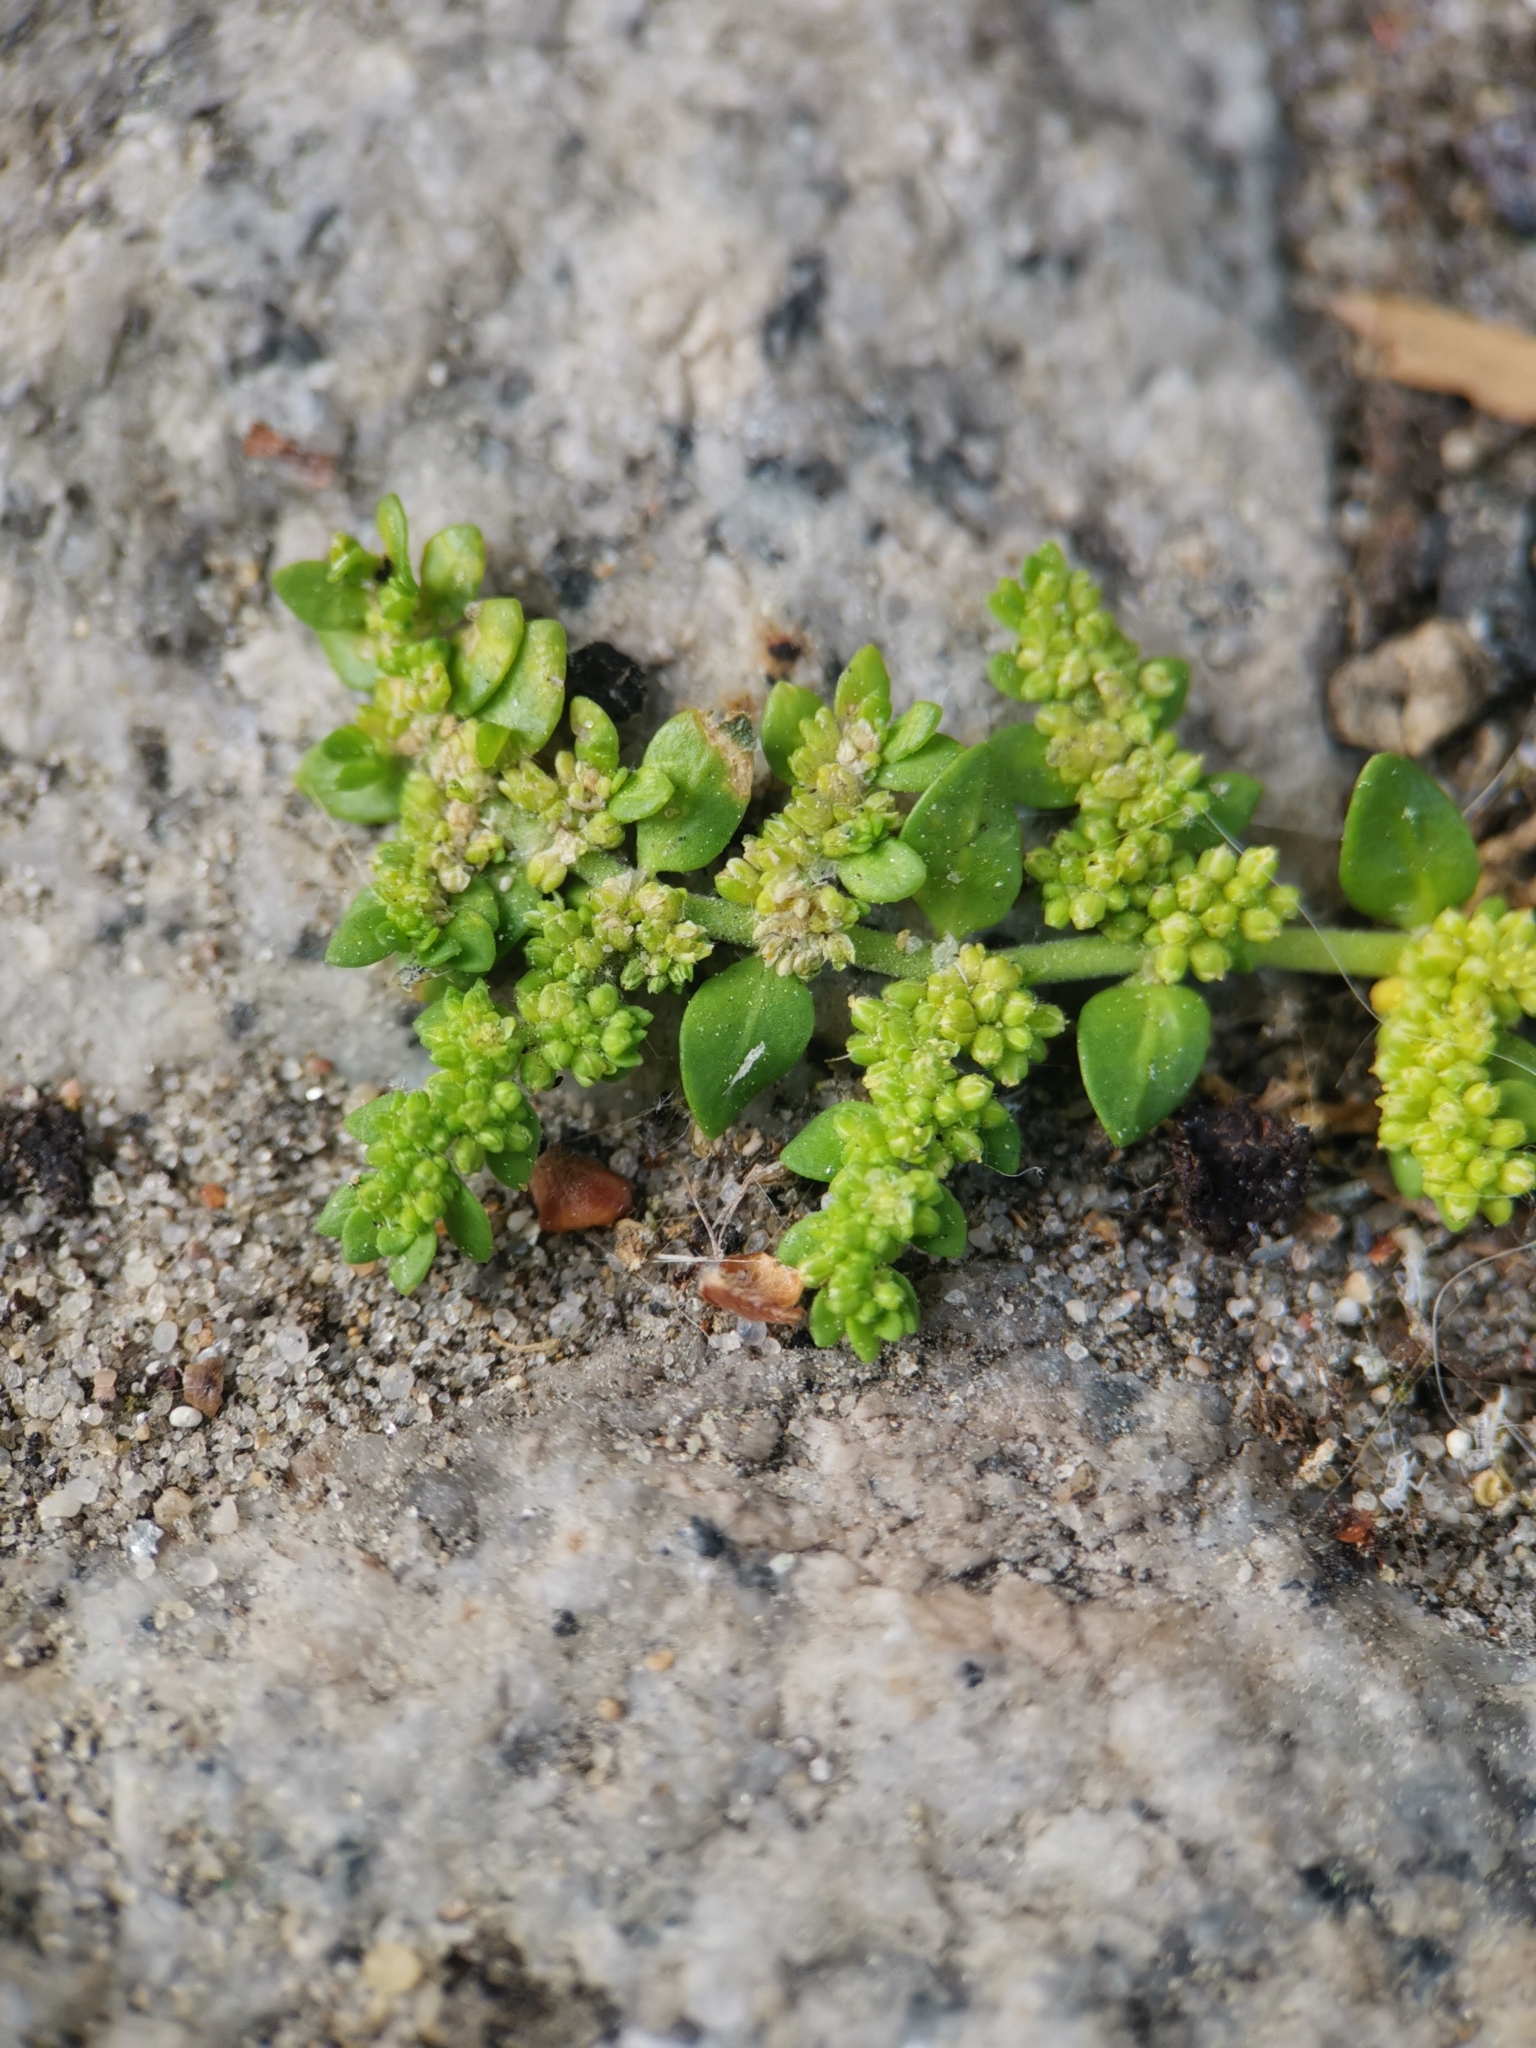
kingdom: Plantae
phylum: Tracheophyta
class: Magnoliopsida
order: Caryophyllales
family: Caryophyllaceae
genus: Herniaria
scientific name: Herniaria glabra
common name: Smooth rupturewort
